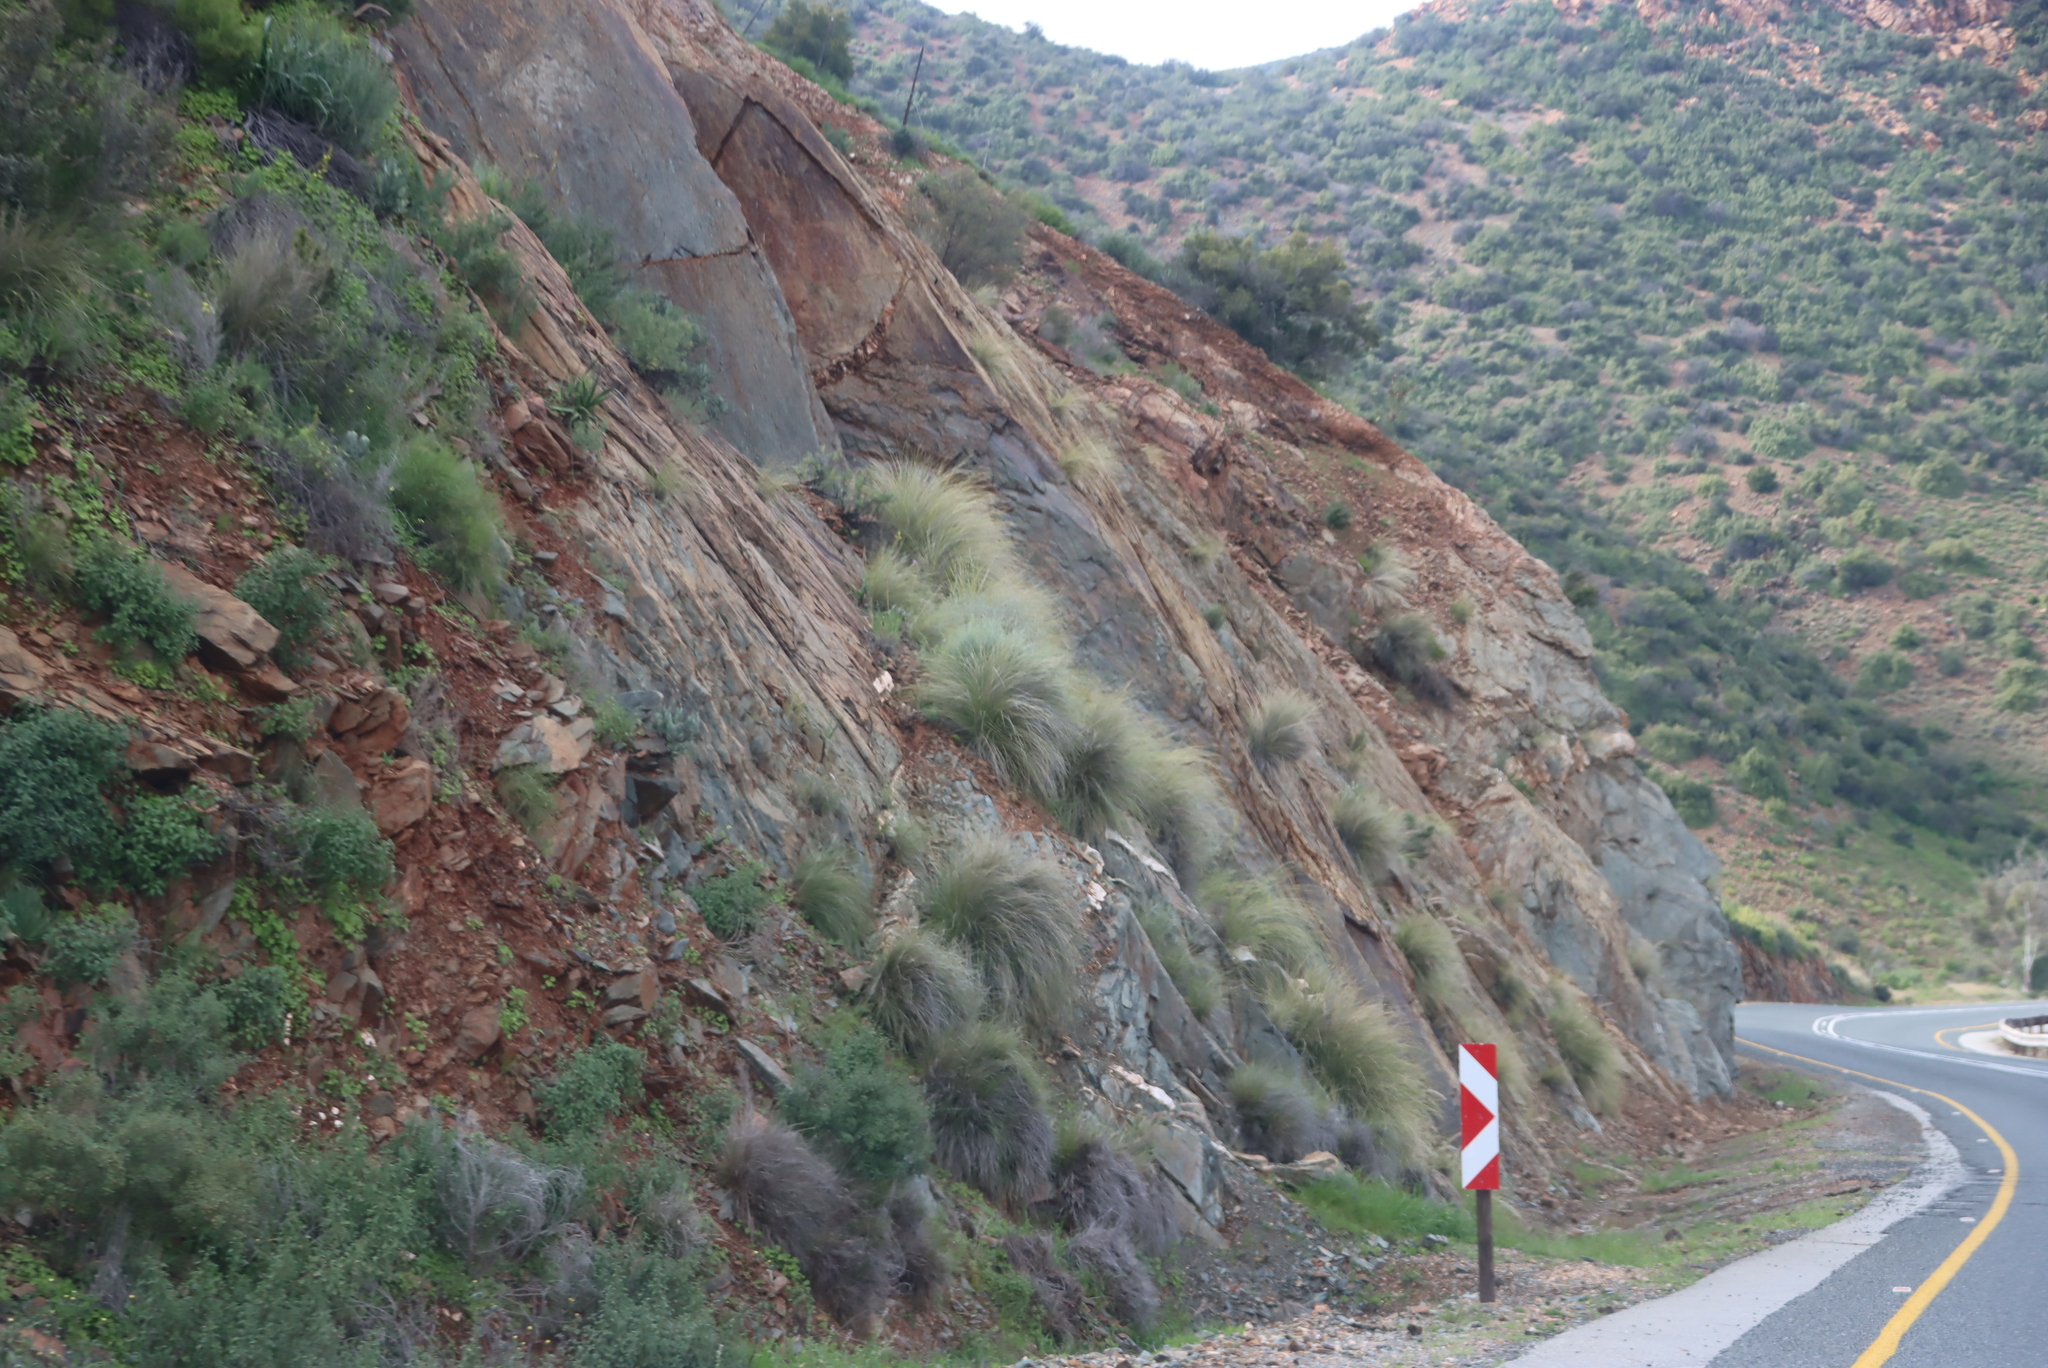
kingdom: Plantae
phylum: Tracheophyta
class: Liliopsida
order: Poales
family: Poaceae
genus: Cenchrus
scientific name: Cenchrus setaceus
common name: Crimson fountaingrass
